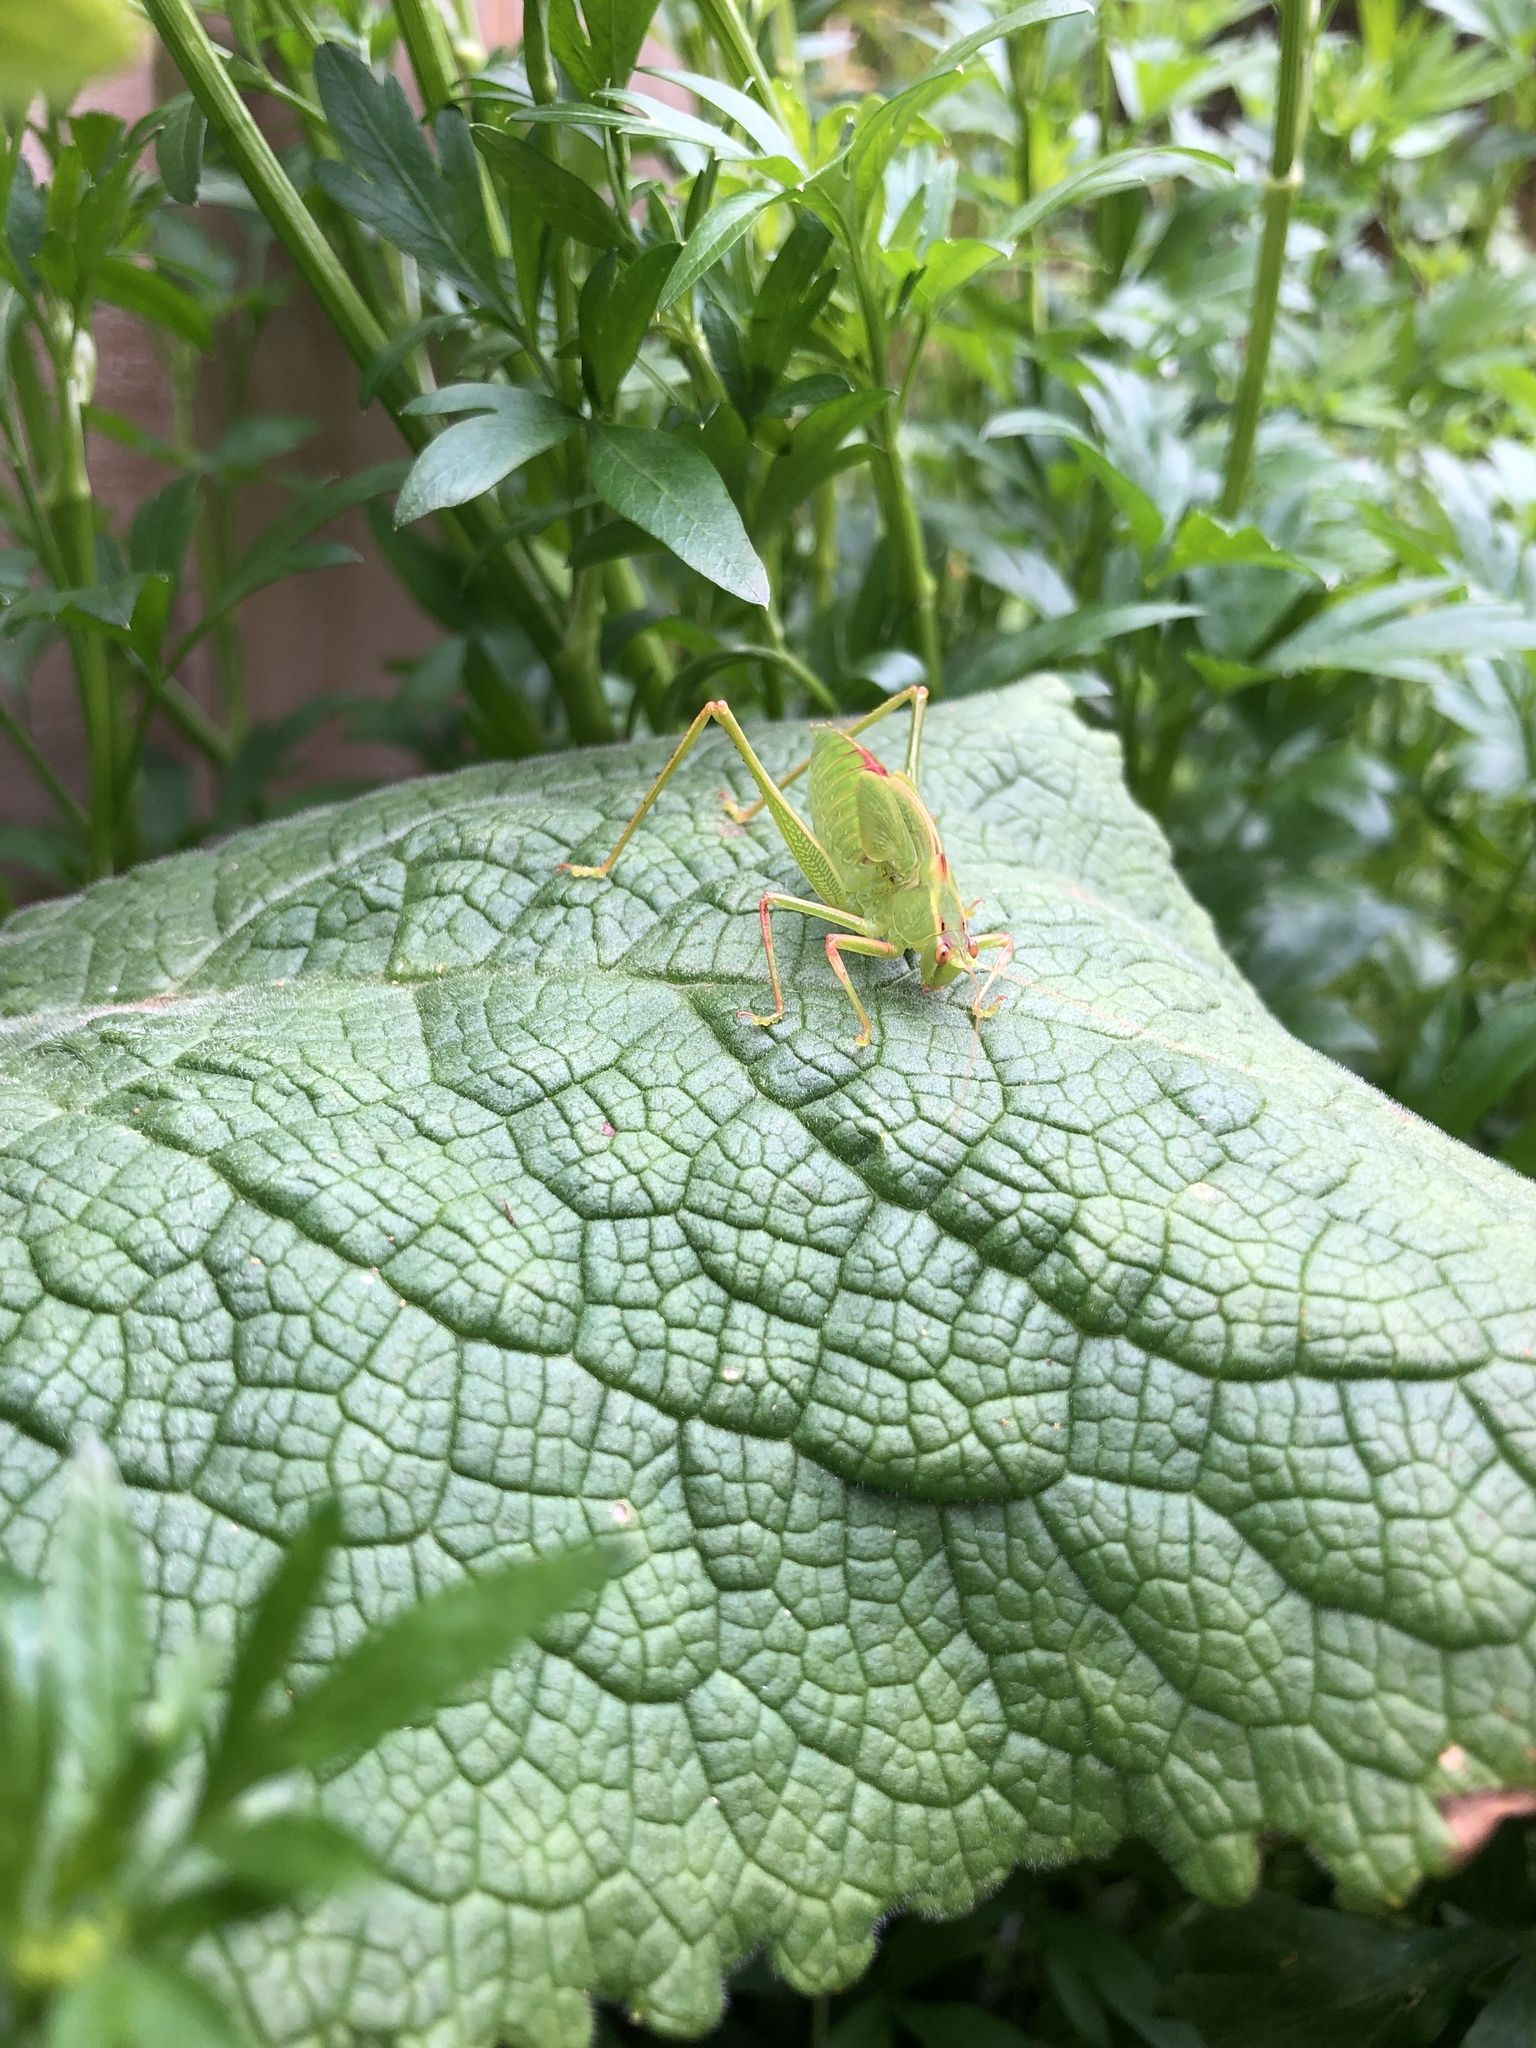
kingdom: Animalia
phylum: Arthropoda
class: Insecta
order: Orthoptera
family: Tettigoniidae
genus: Caedicia
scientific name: Caedicia simplex
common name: Common garden katydid
